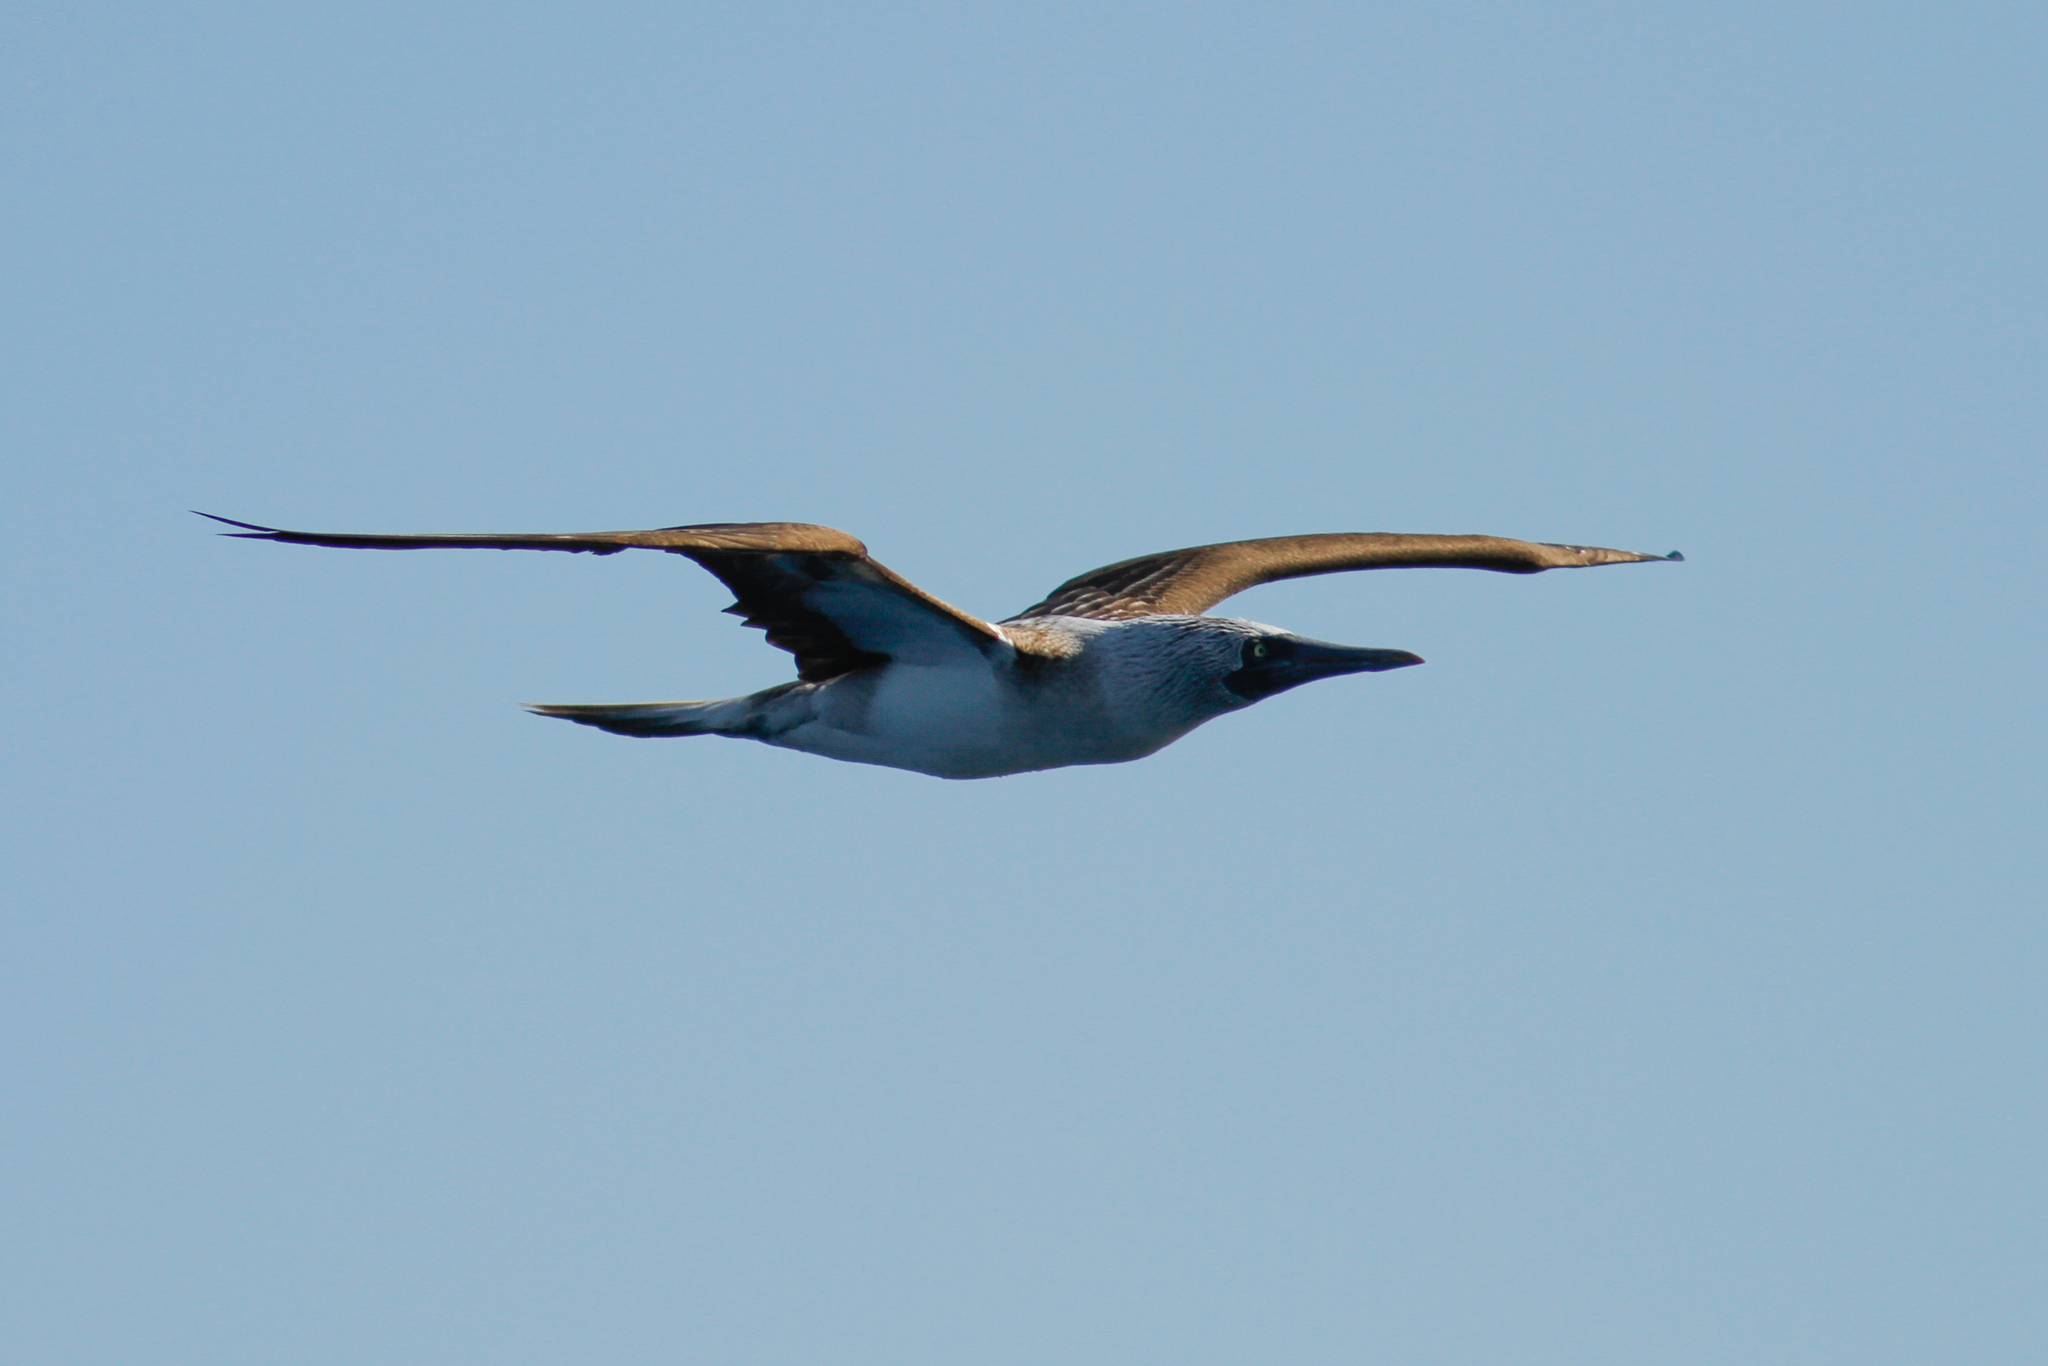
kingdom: Animalia
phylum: Chordata
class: Aves
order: Suliformes
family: Sulidae
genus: Sula
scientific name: Sula nebouxii
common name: Blue-footed booby
